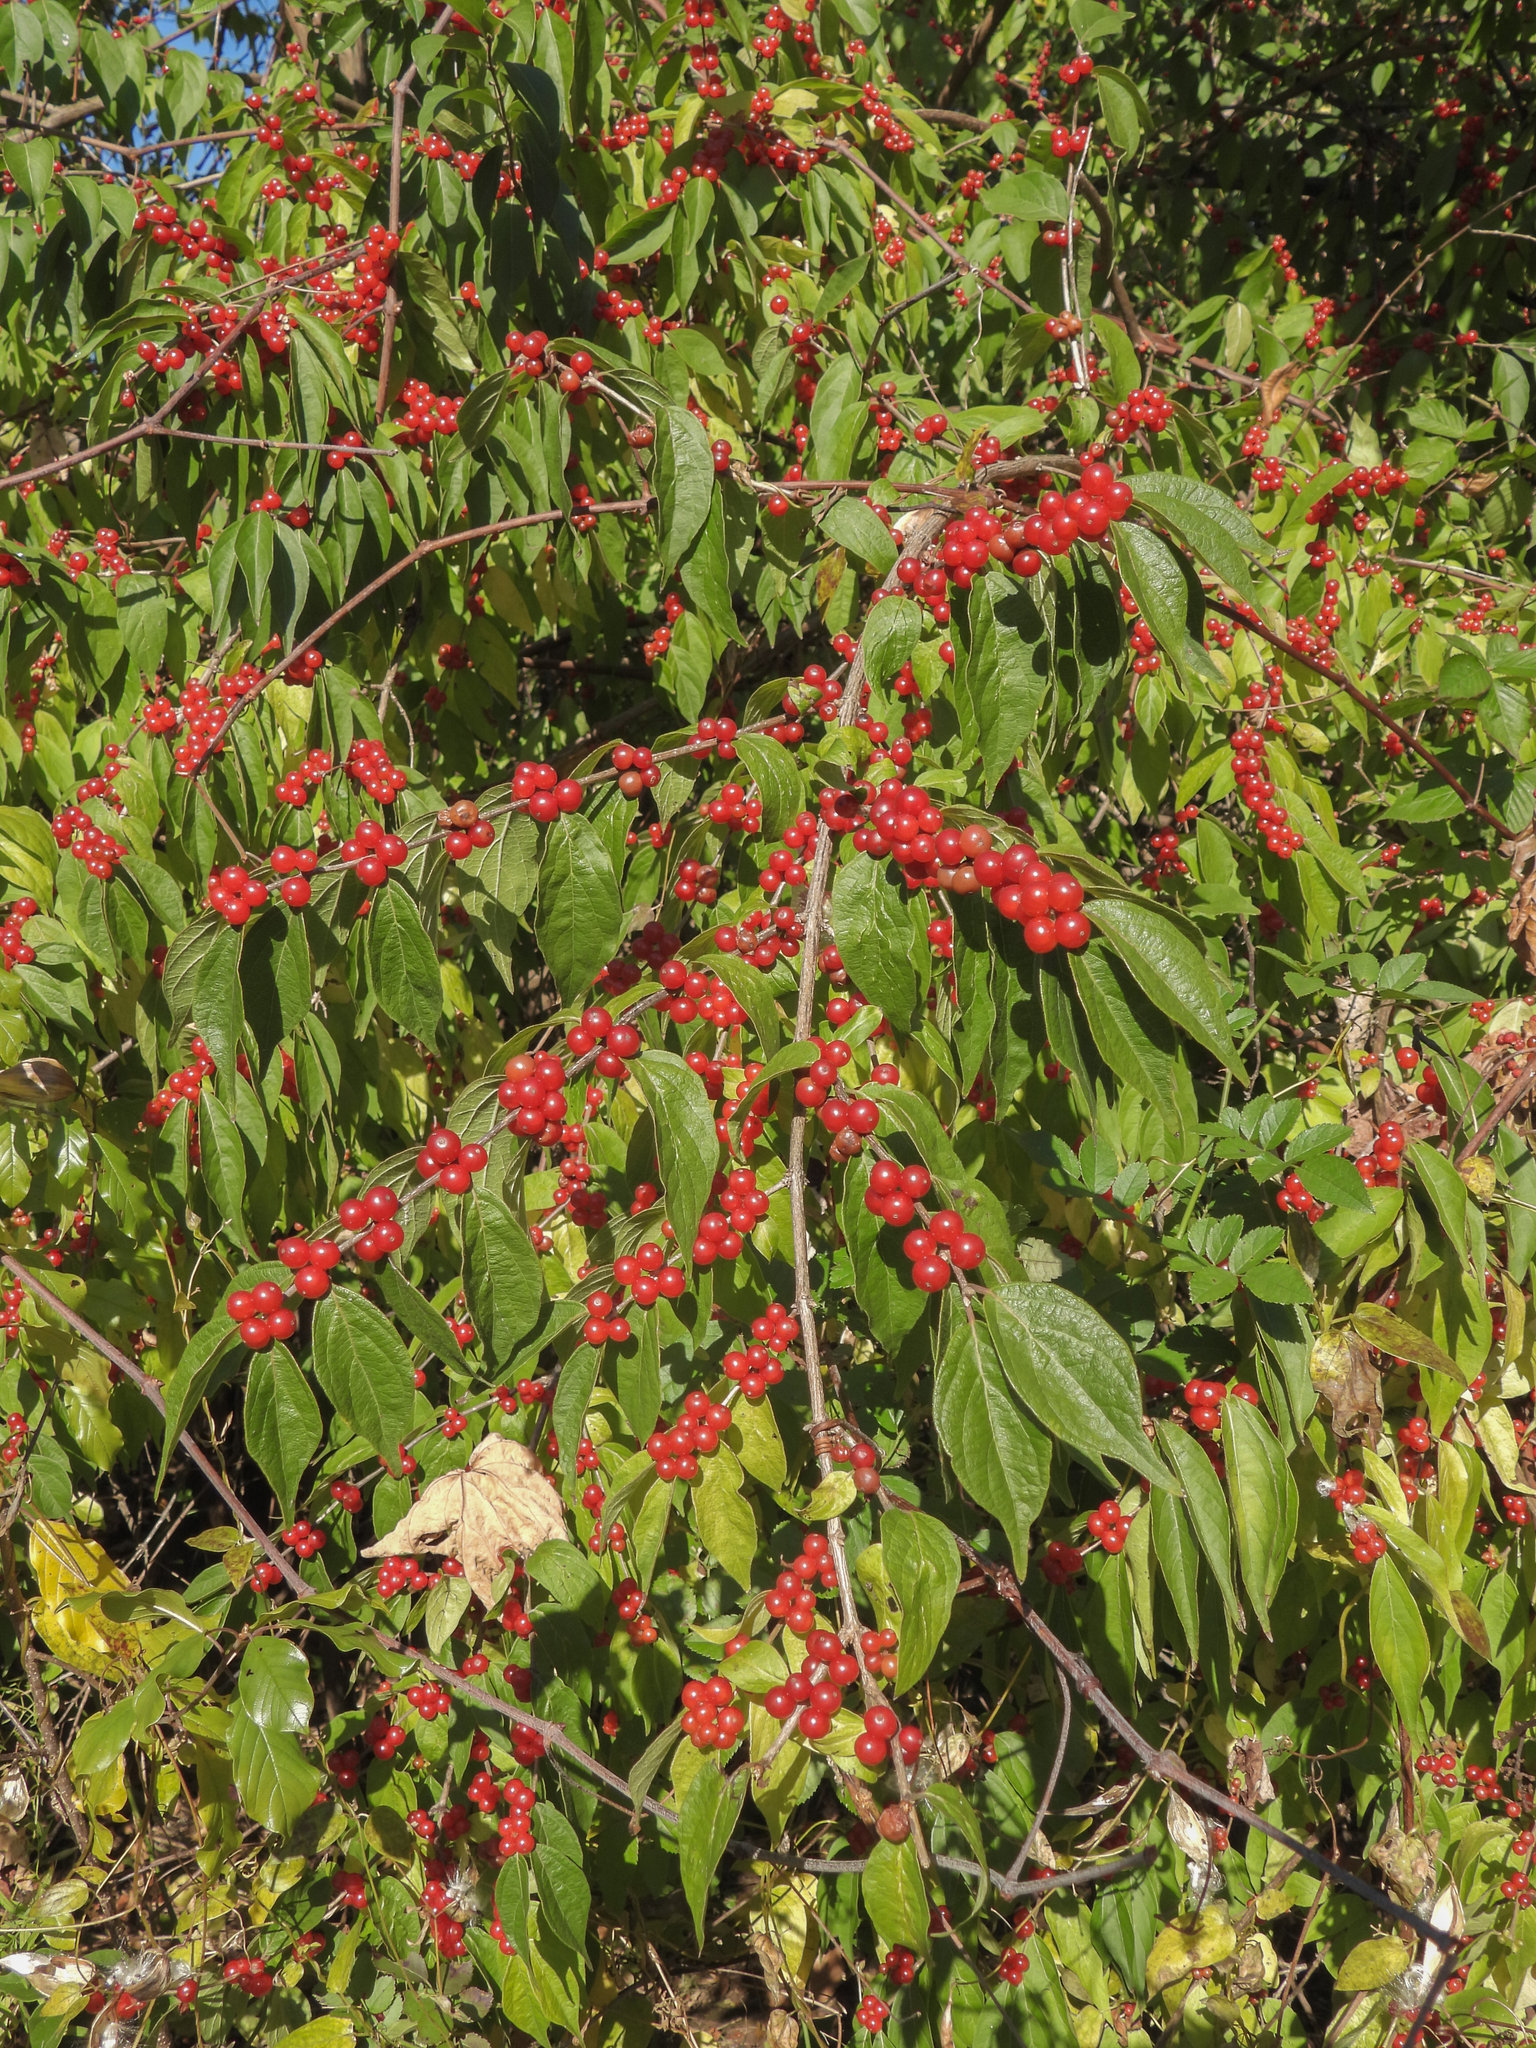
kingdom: Plantae
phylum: Tracheophyta
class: Magnoliopsida
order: Dipsacales
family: Caprifoliaceae
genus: Lonicera
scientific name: Lonicera maackii
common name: Amur honeysuckle
